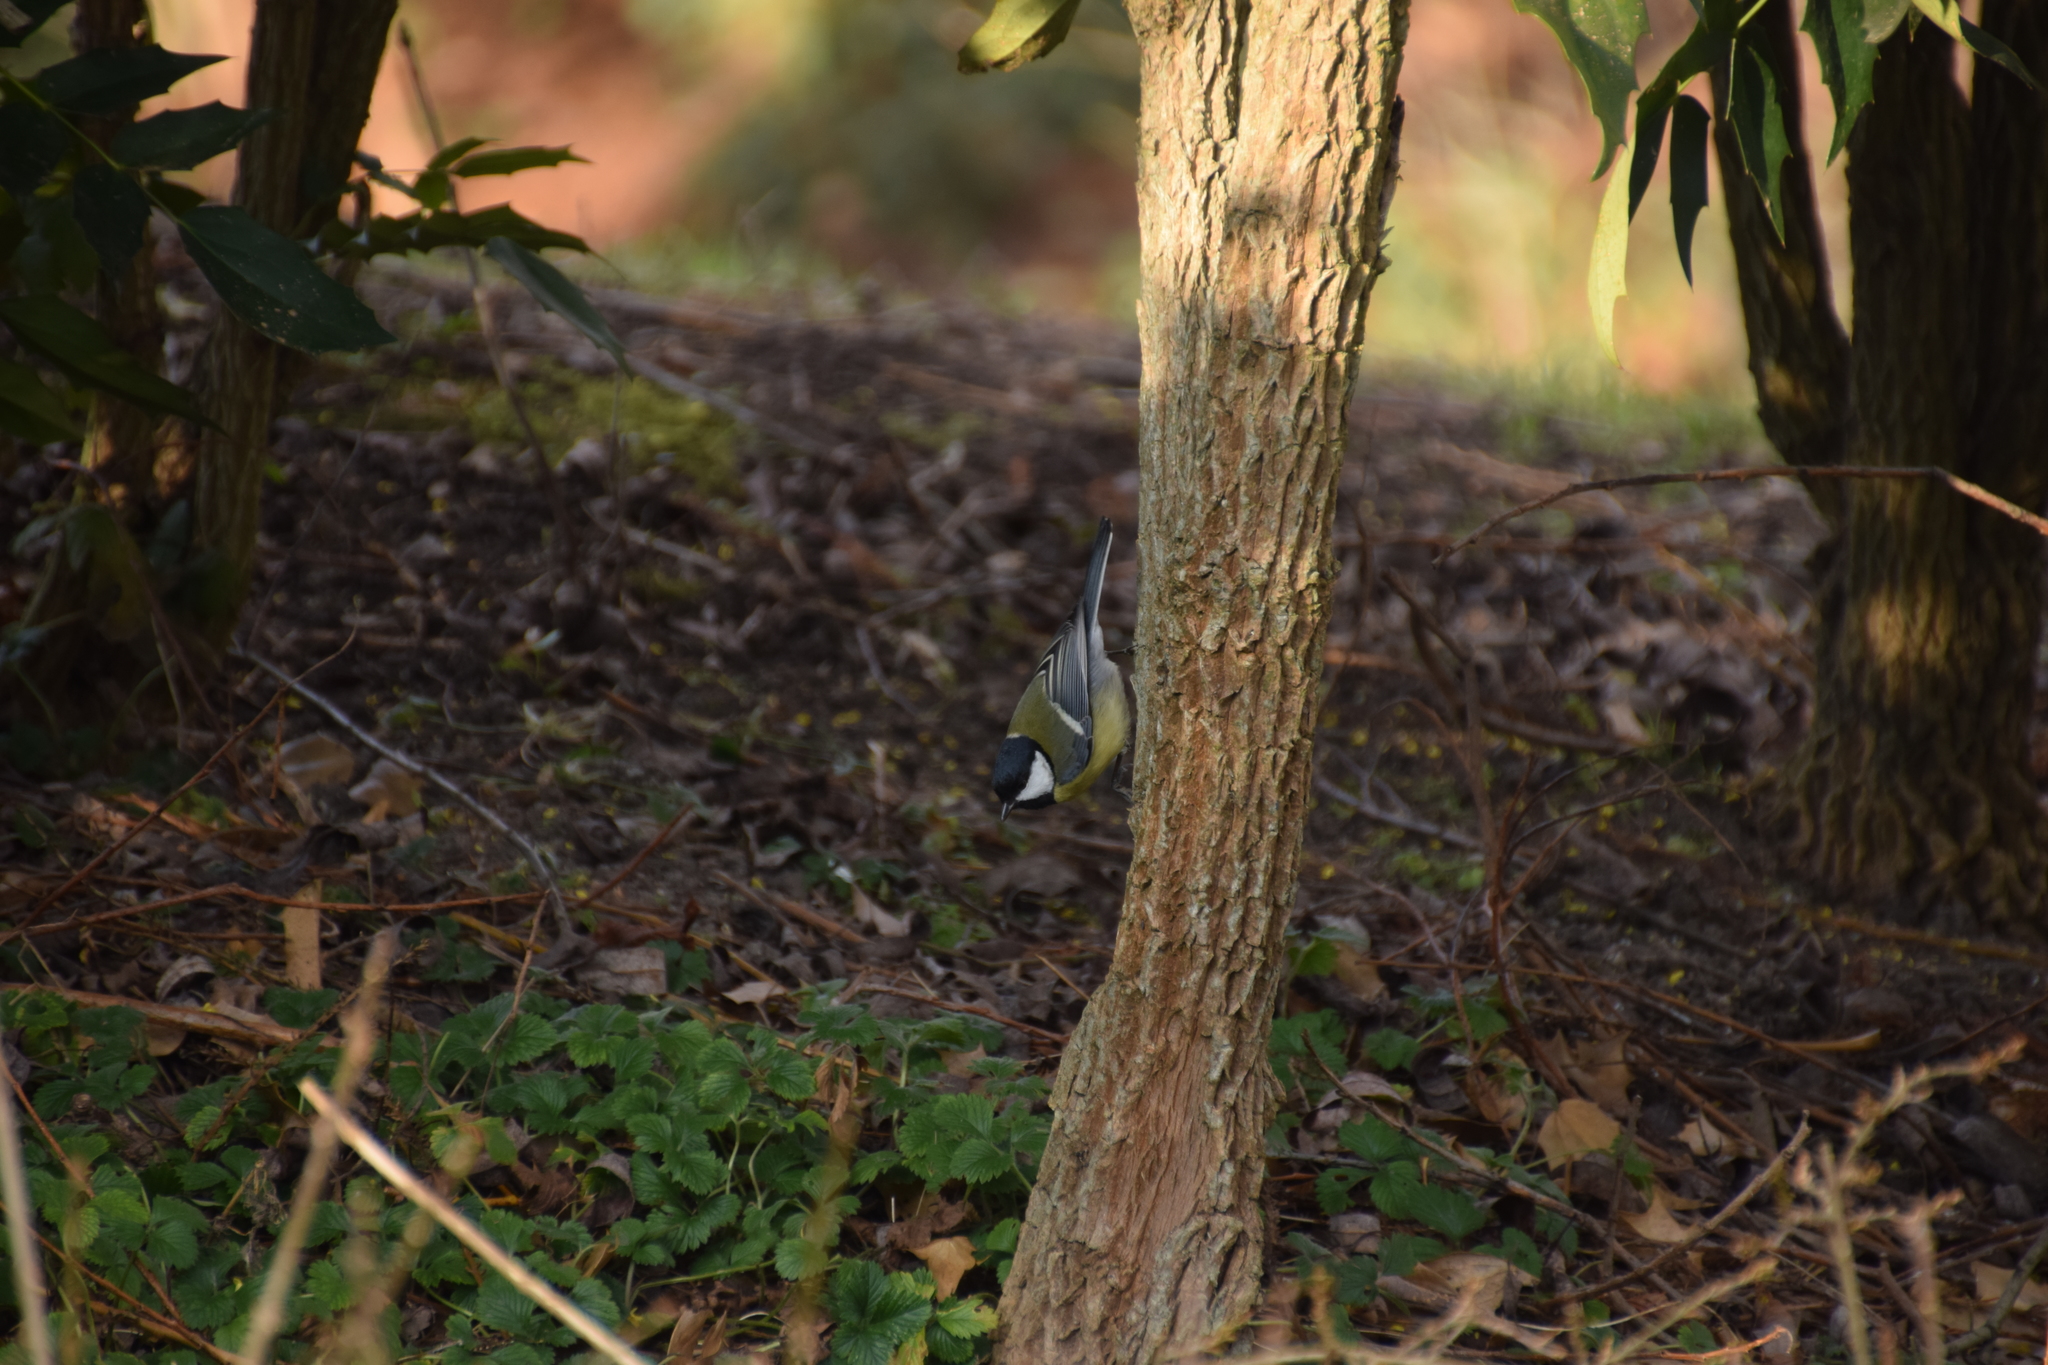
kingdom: Animalia
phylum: Chordata
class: Aves
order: Passeriformes
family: Paridae
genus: Parus
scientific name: Parus major
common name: Great tit
